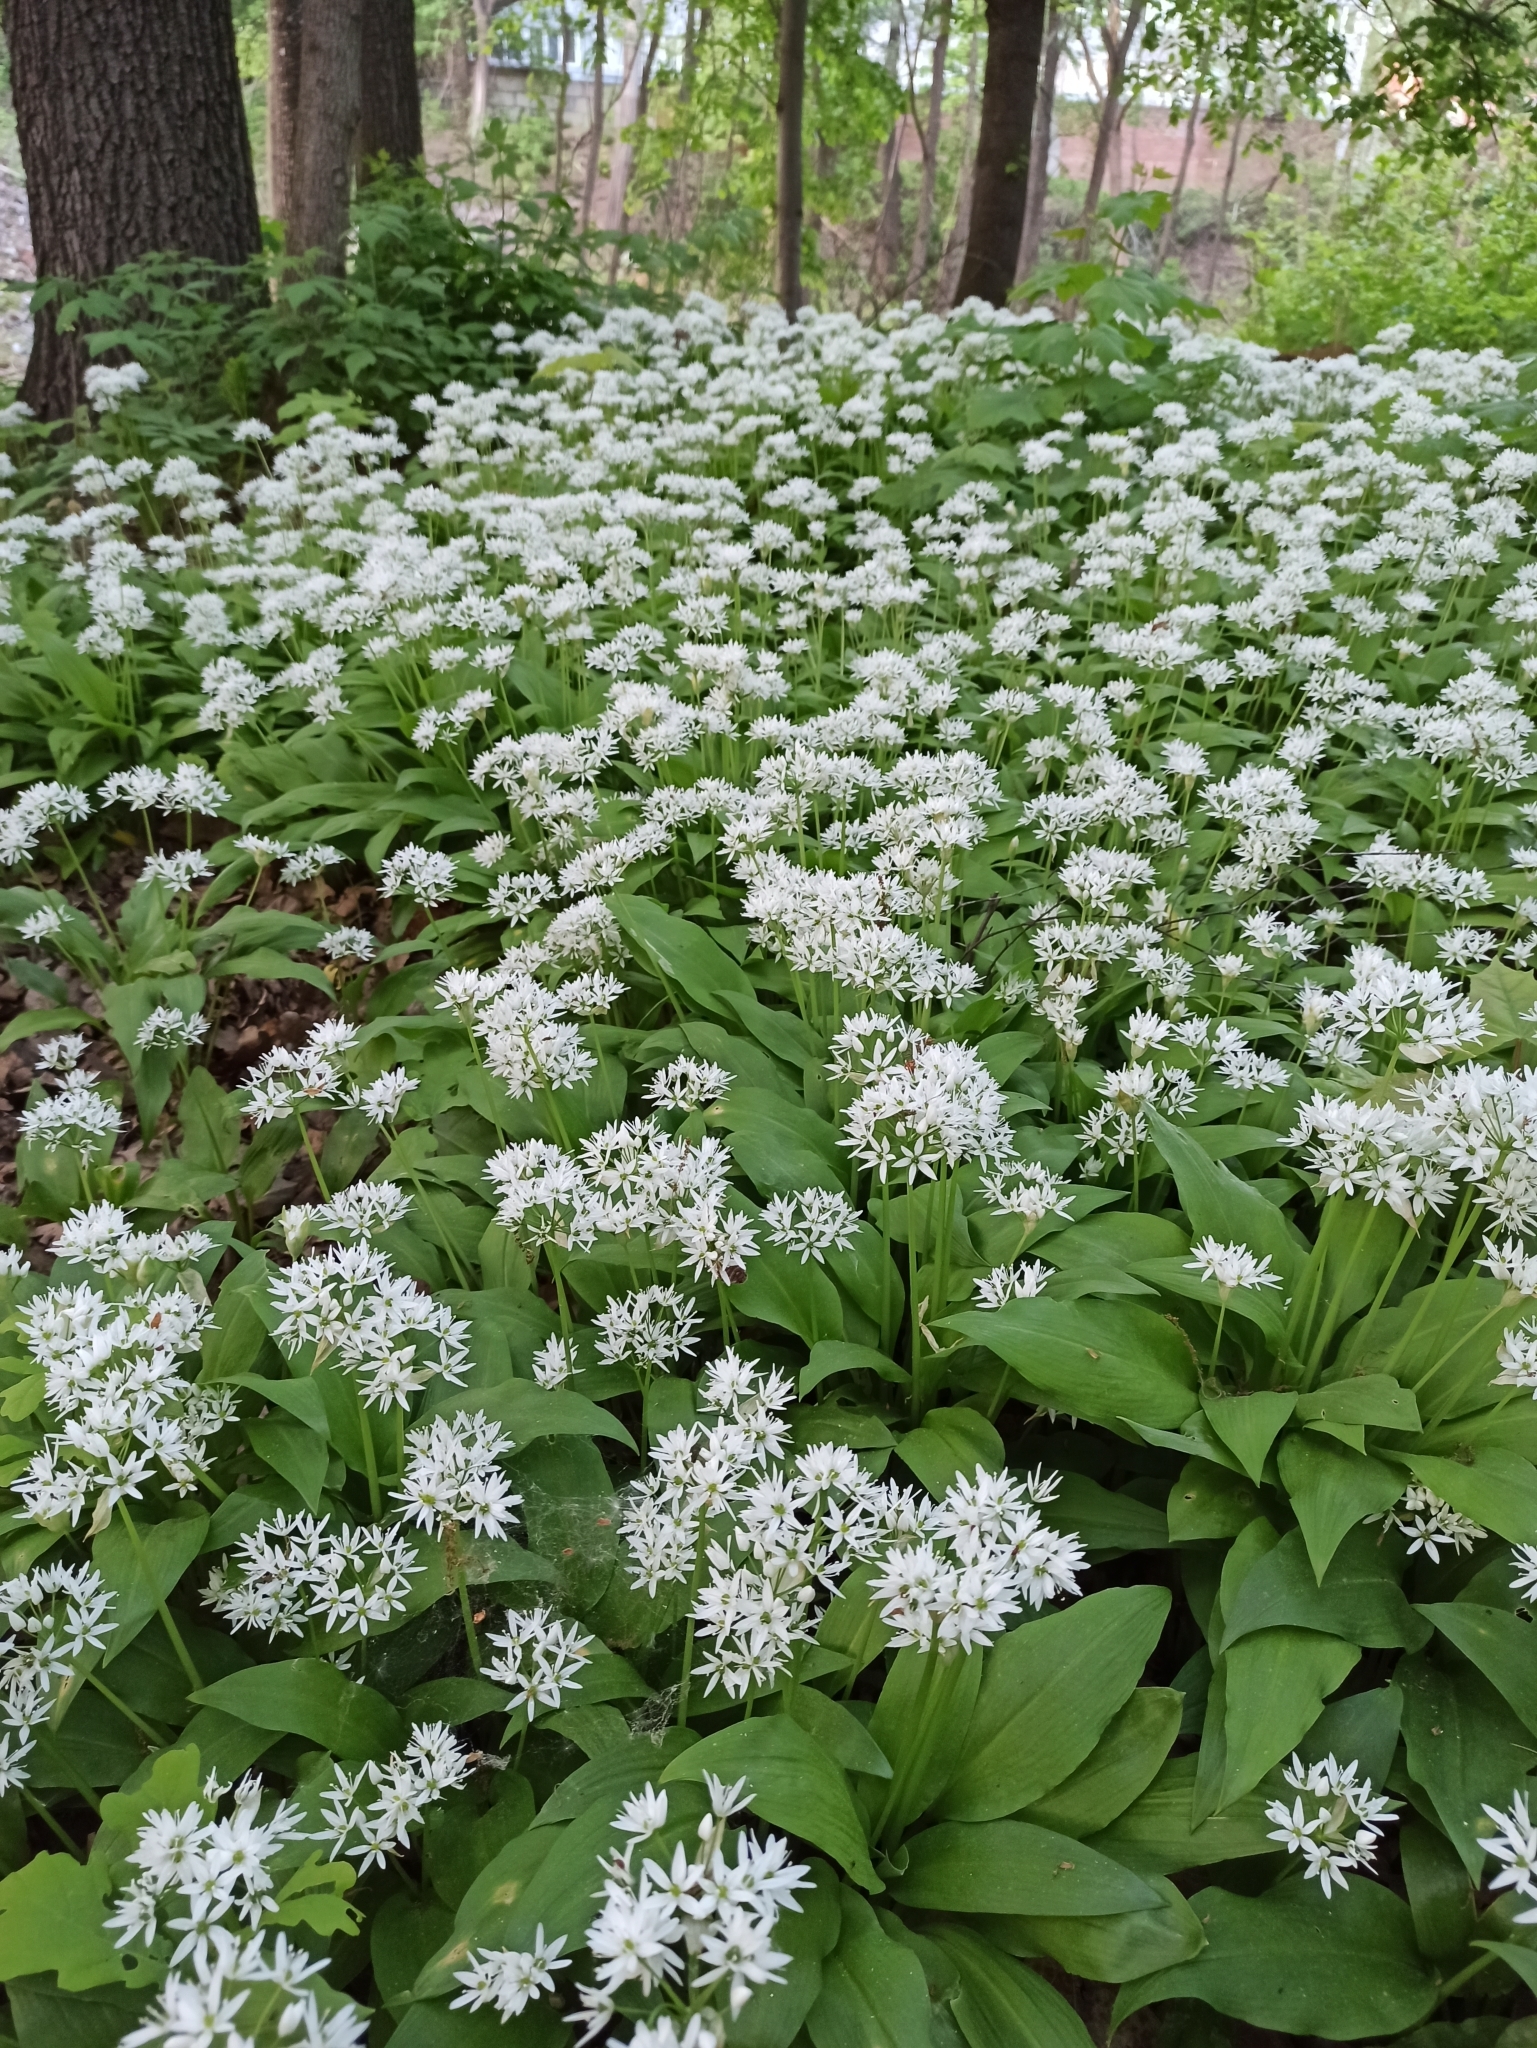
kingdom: Plantae
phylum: Tracheophyta
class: Liliopsida
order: Asparagales
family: Amaryllidaceae
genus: Allium
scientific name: Allium ursinum
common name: Ramsons
